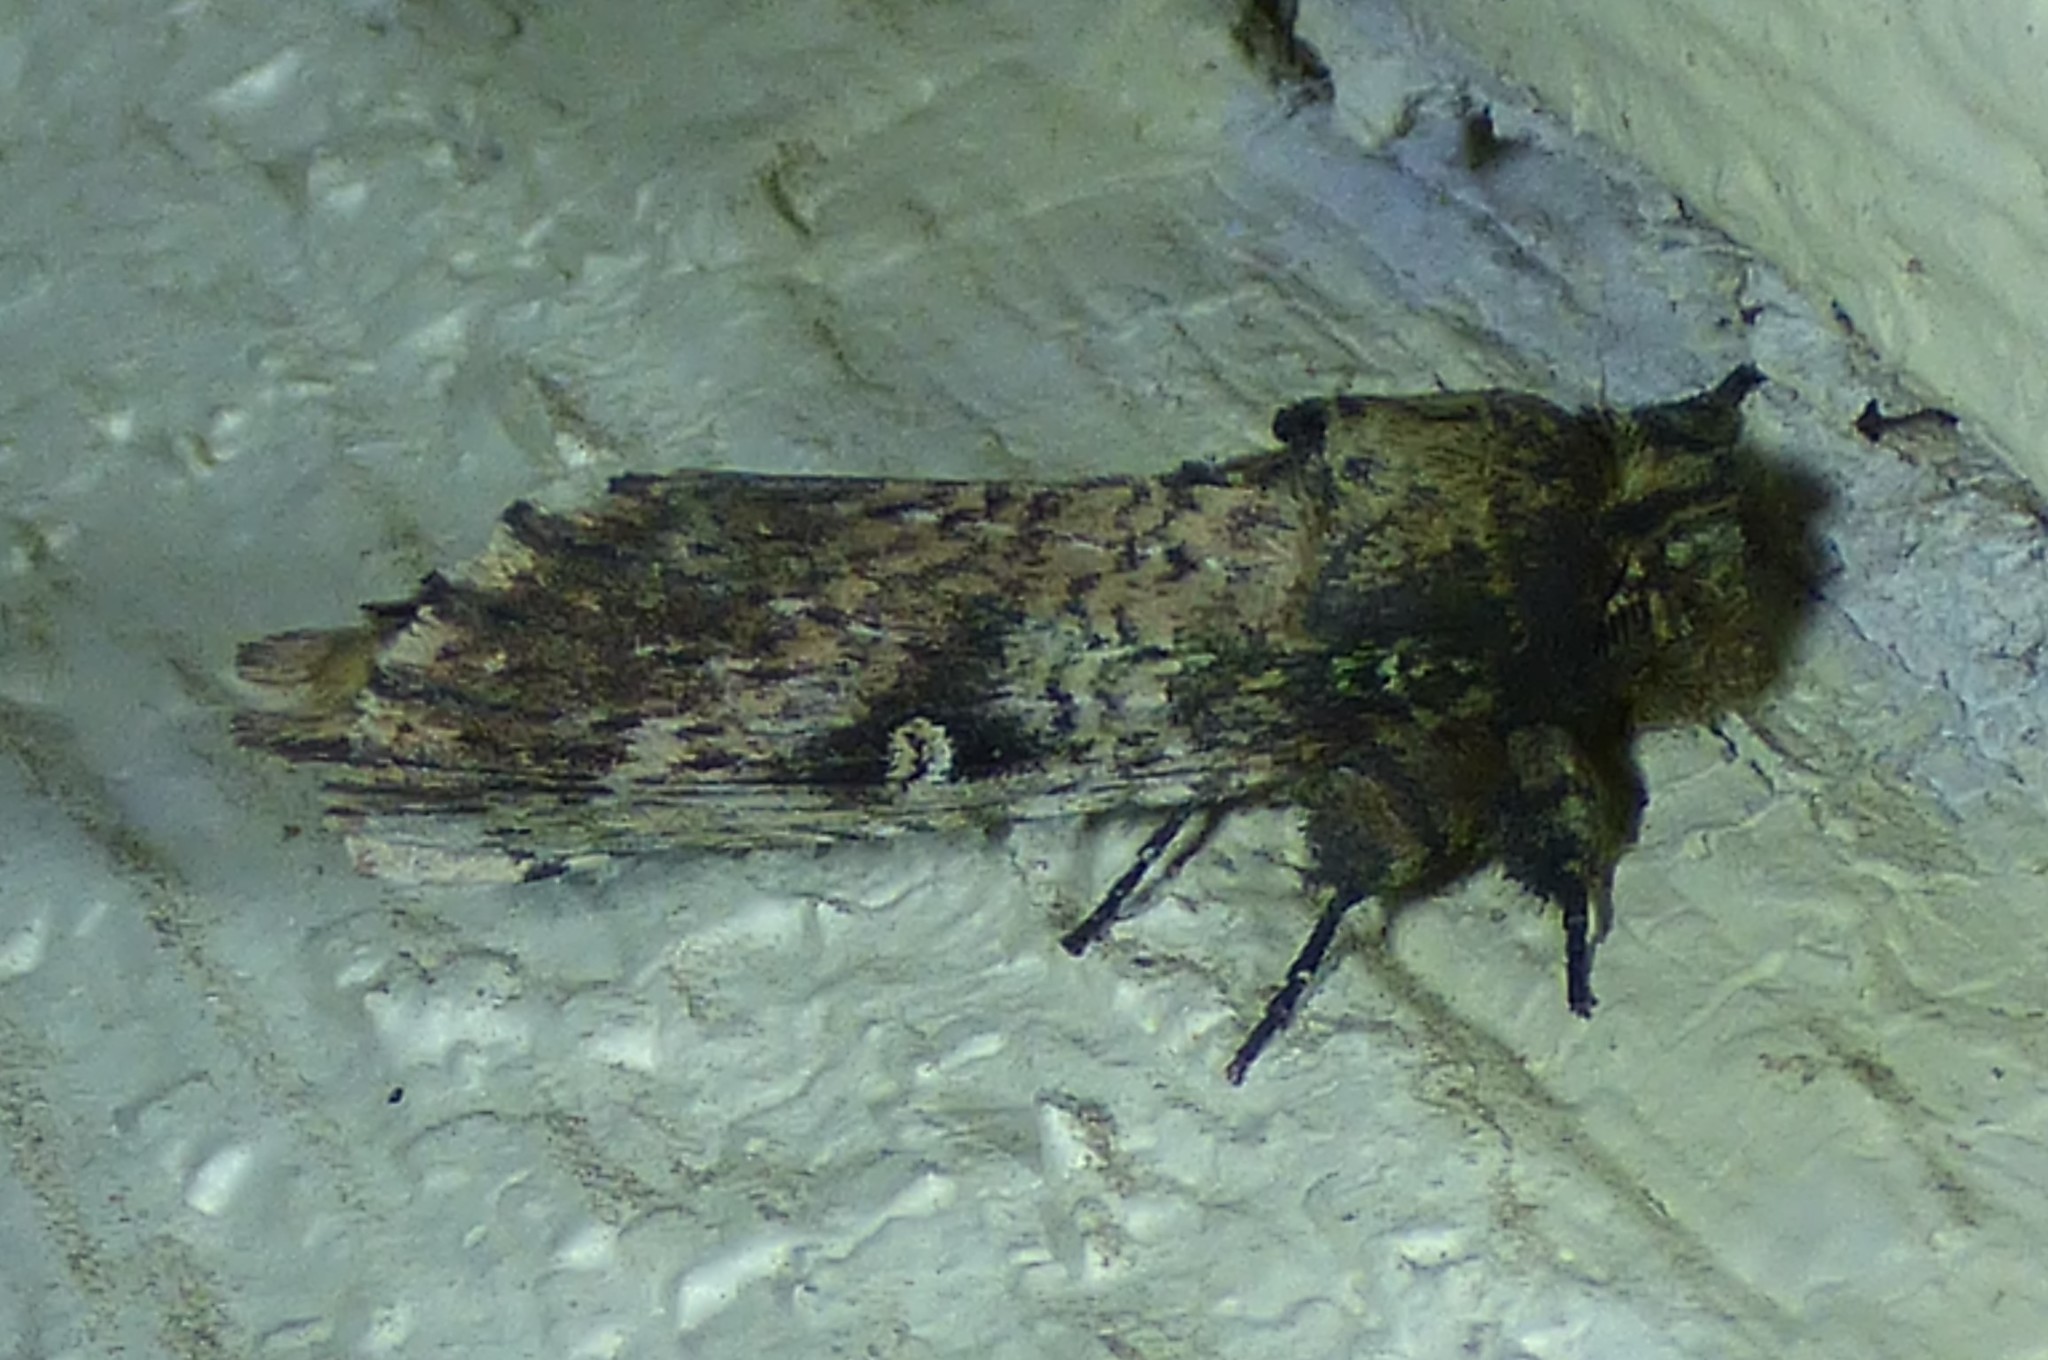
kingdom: Animalia
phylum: Arthropoda
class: Insecta
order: Lepidoptera
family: Notodontidae
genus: Schizura
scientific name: Schizura ipomaeae
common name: Morning-glory prominent
